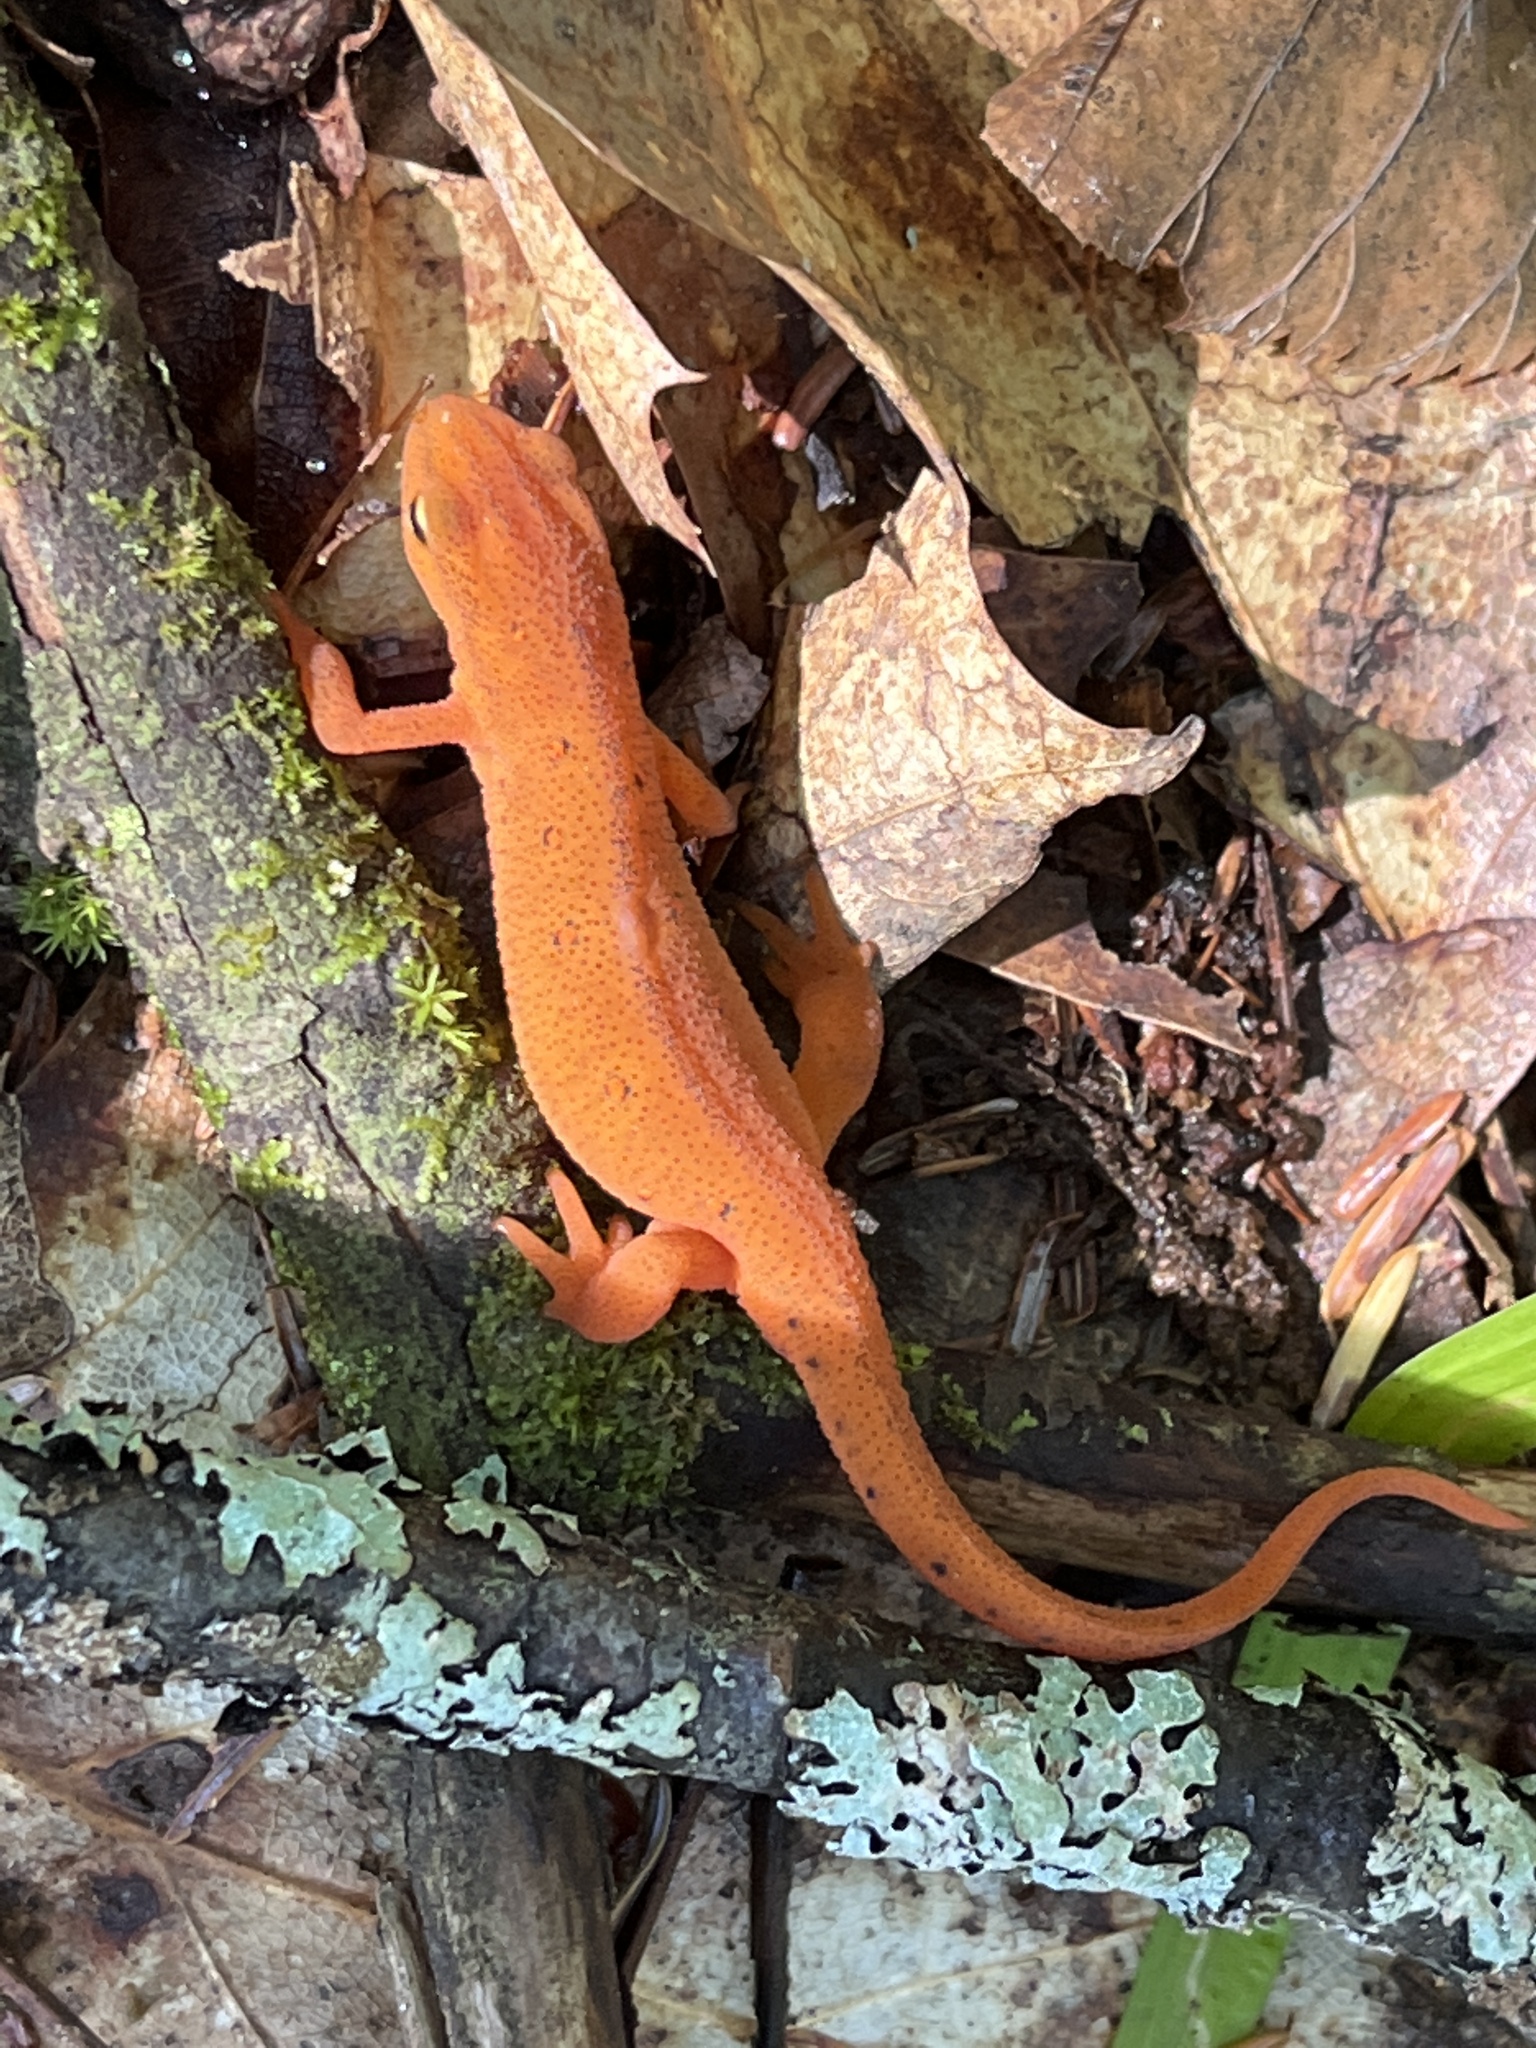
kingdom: Animalia
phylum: Chordata
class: Amphibia
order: Caudata
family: Salamandridae
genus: Notophthalmus
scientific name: Notophthalmus viridescens
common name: Eastern newt
